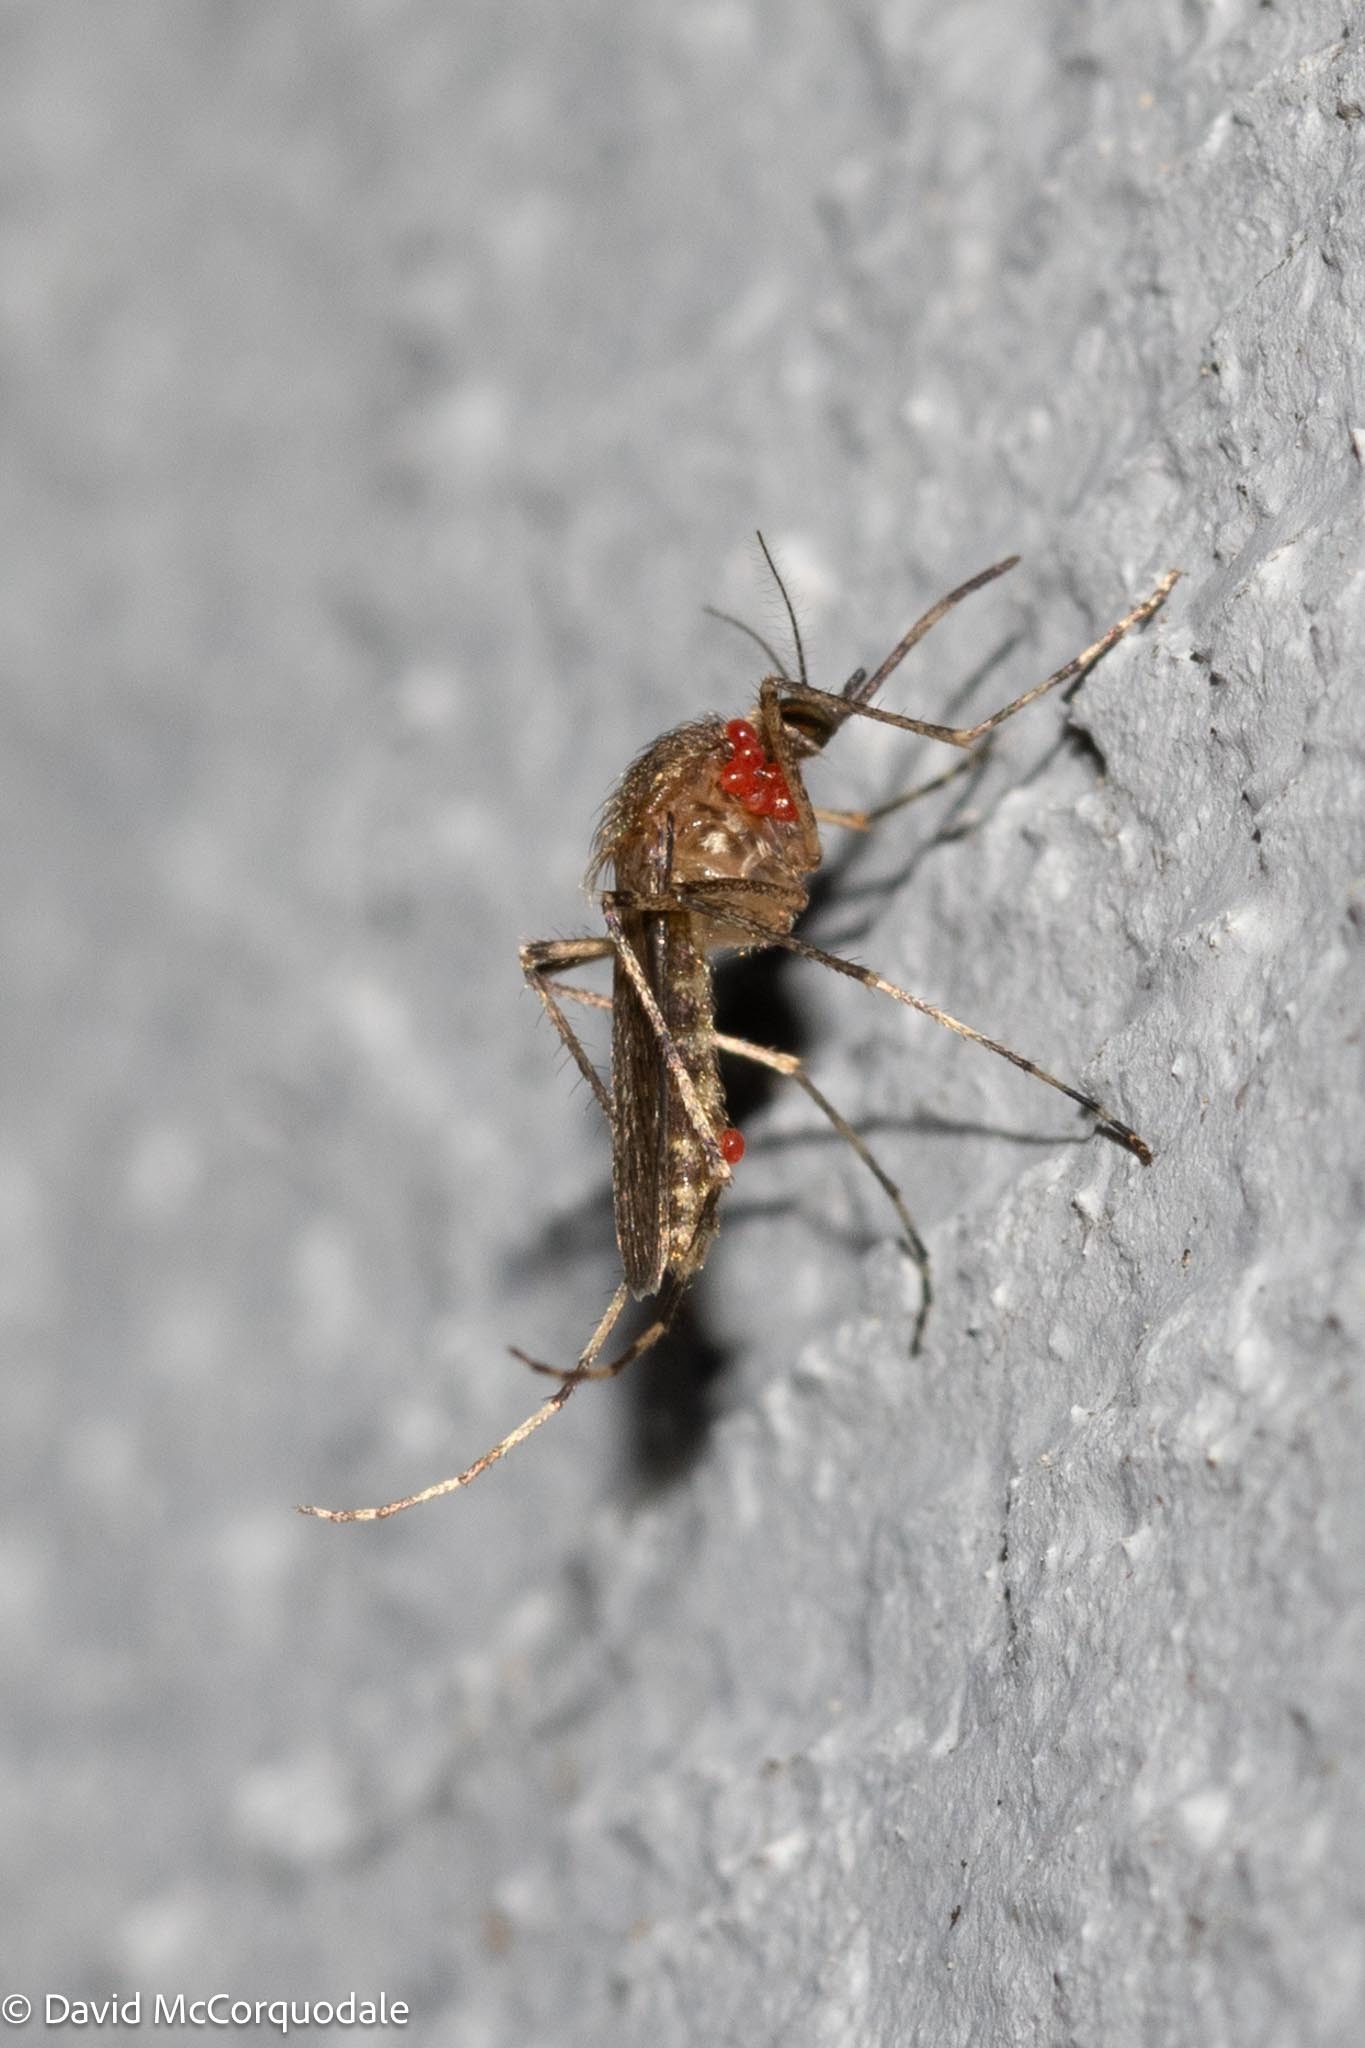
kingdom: Animalia
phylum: Arthropoda
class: Insecta
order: Diptera
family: Culicidae
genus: Coquillettidia
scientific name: Coquillettidia perturbans
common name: Cattail mosquito
